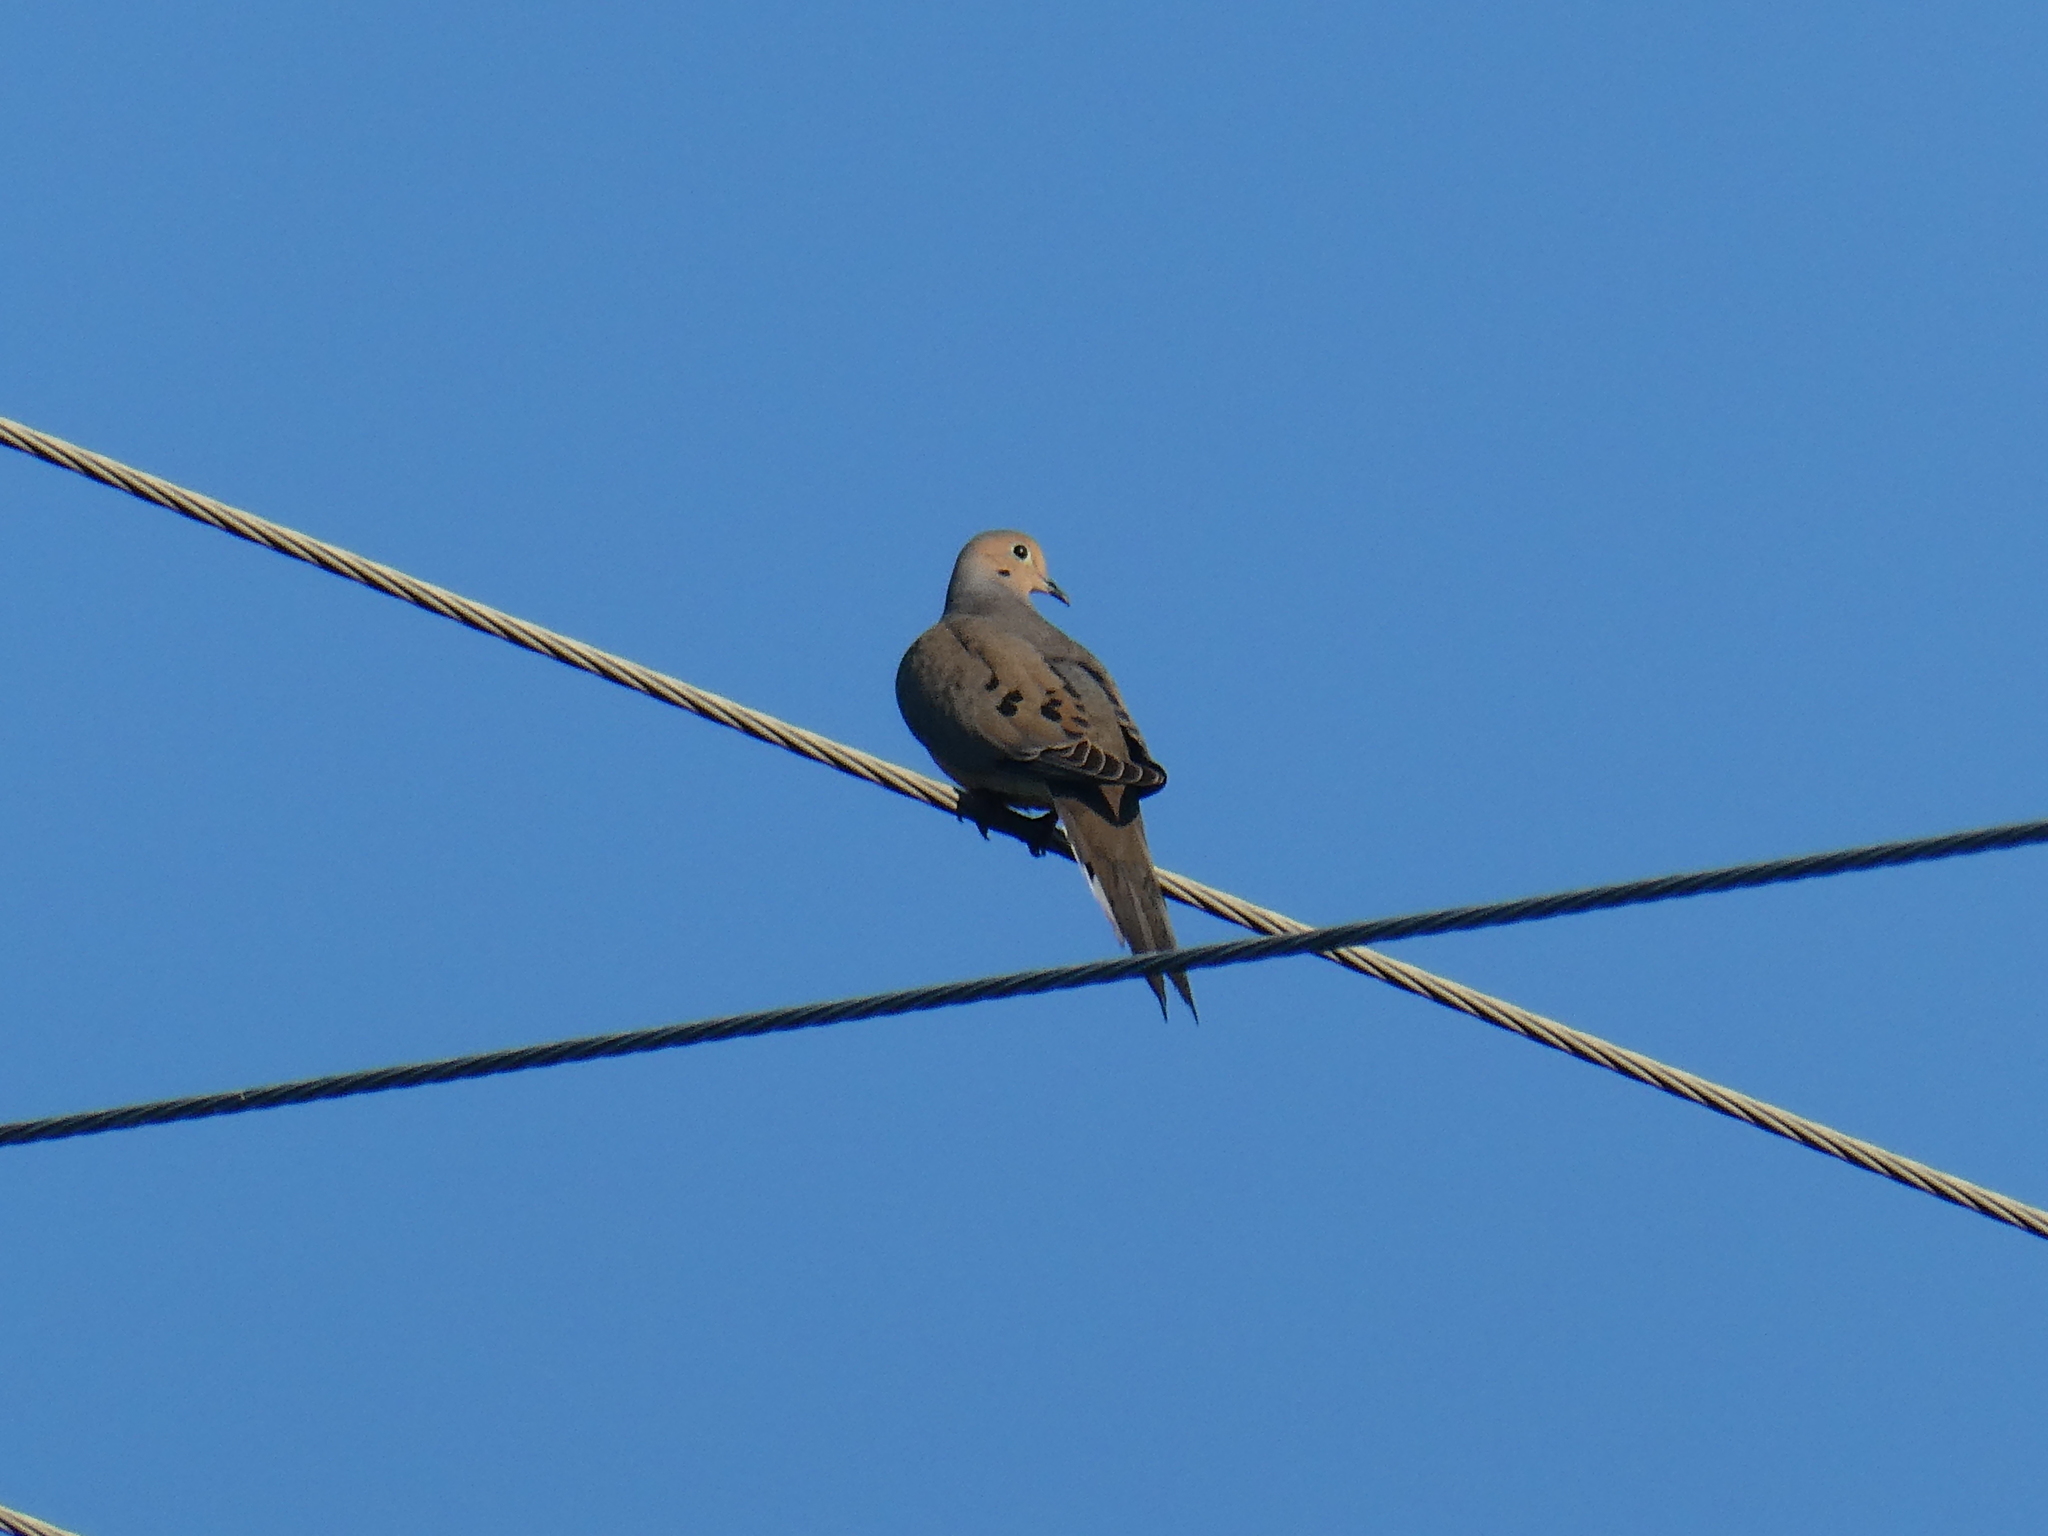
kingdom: Animalia
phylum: Chordata
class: Aves
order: Columbiformes
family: Columbidae
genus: Zenaida
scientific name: Zenaida macroura
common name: Mourning dove
